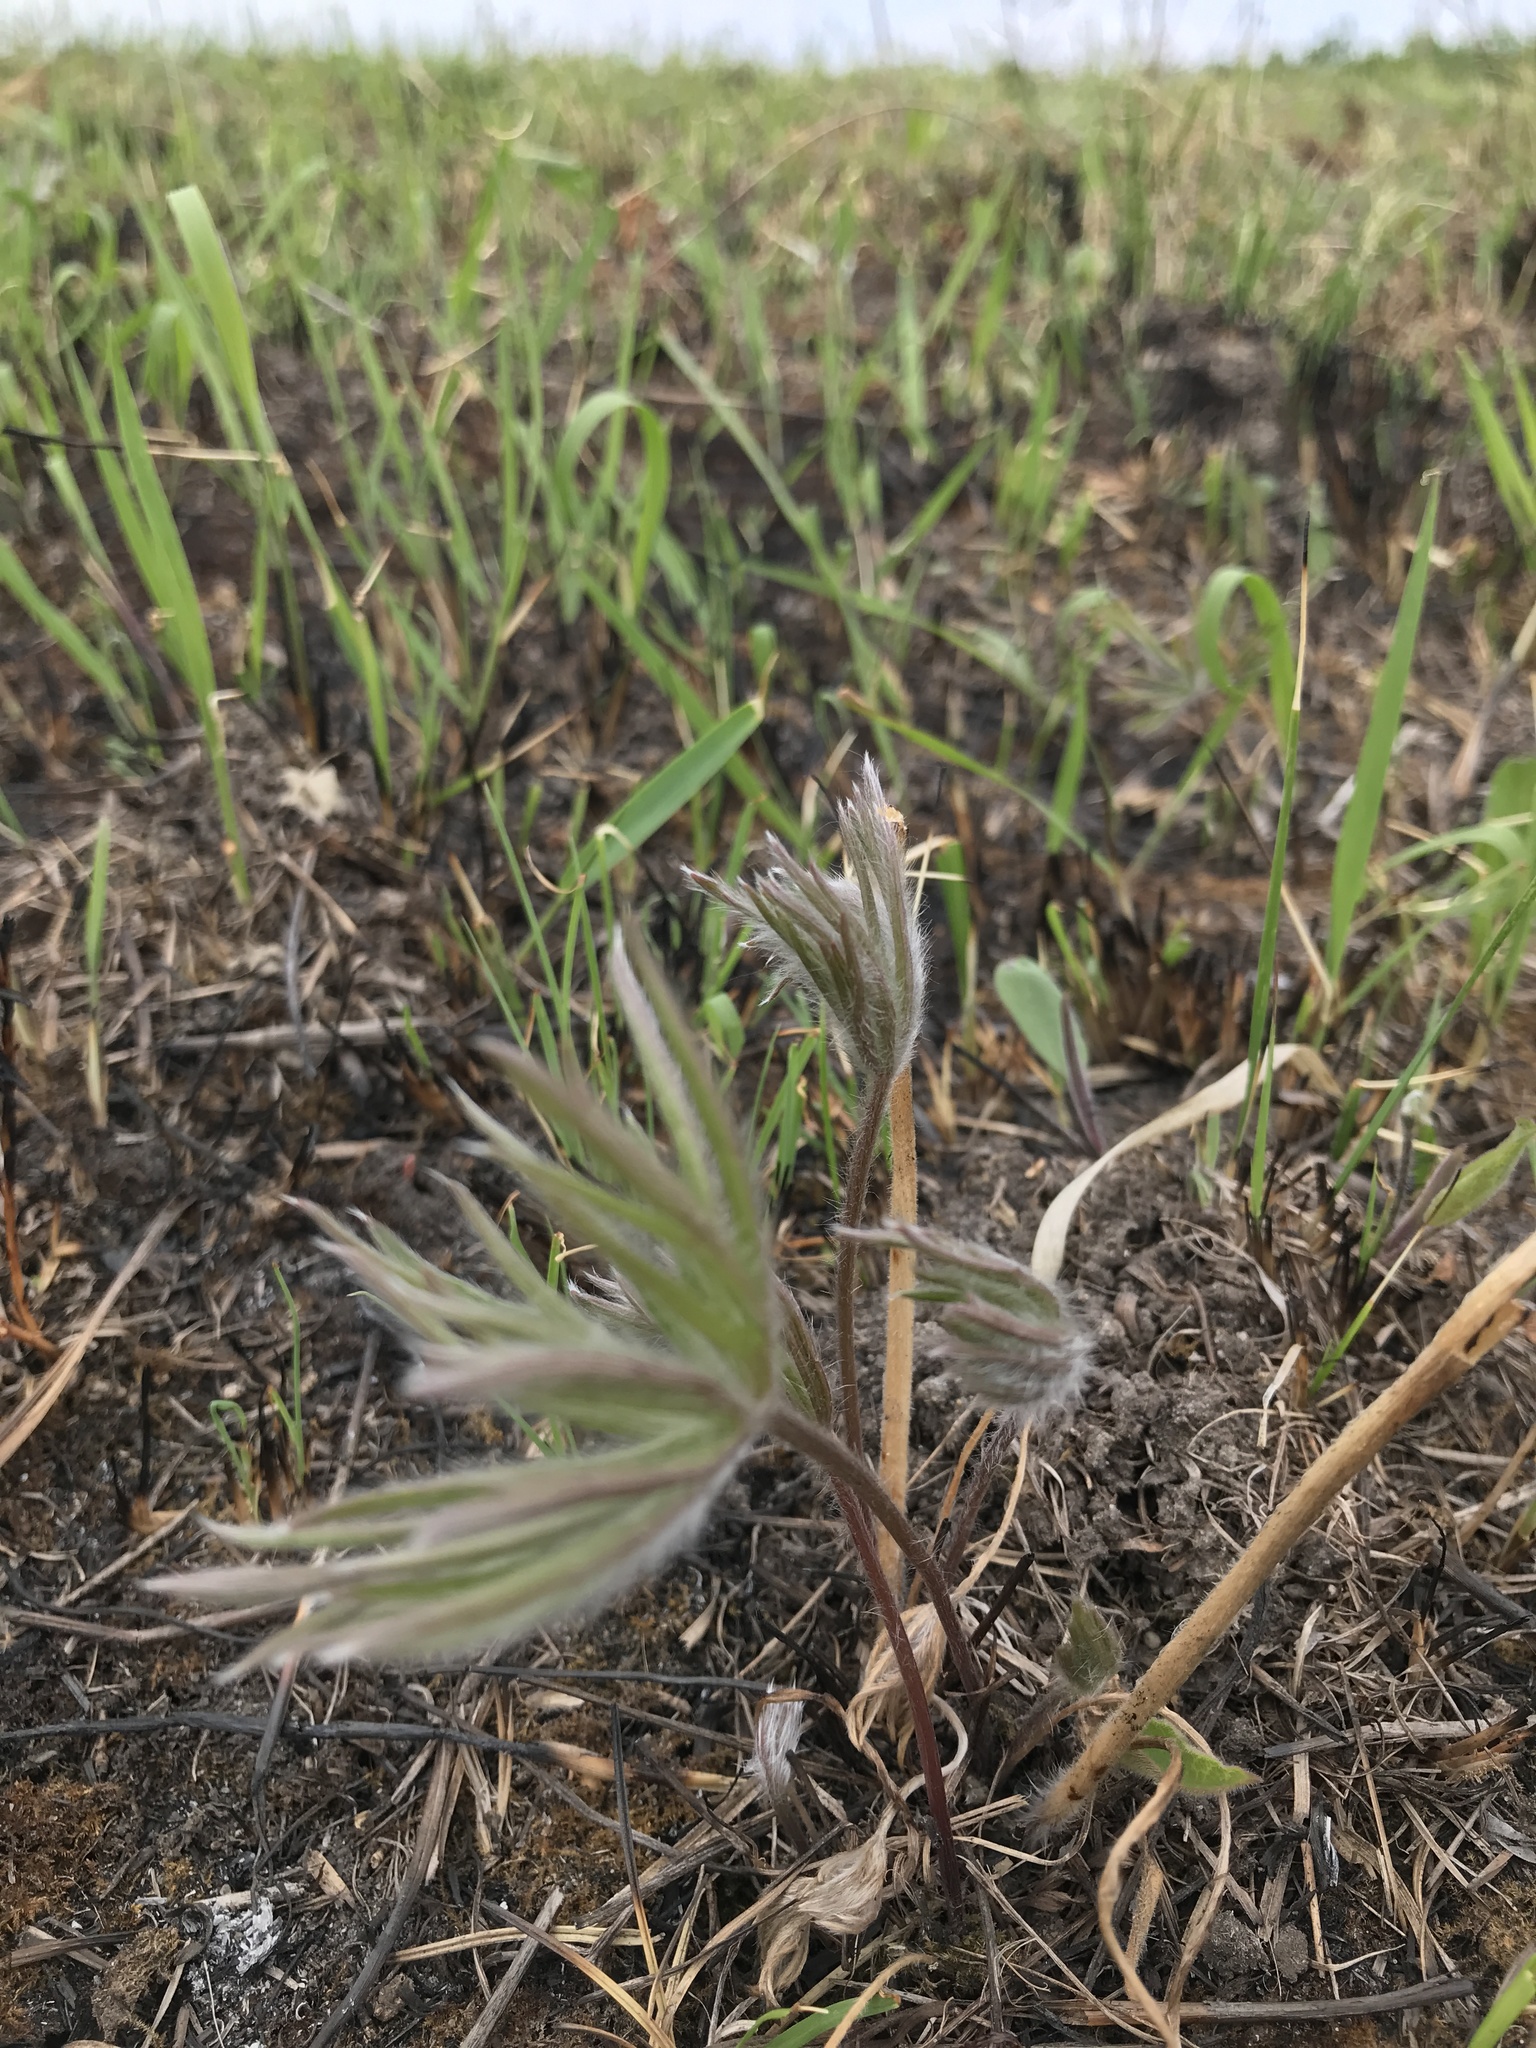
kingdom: Plantae
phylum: Tracheophyta
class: Magnoliopsida
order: Ranunculales
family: Ranunculaceae
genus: Pulsatilla
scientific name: Pulsatilla nuttalliana
